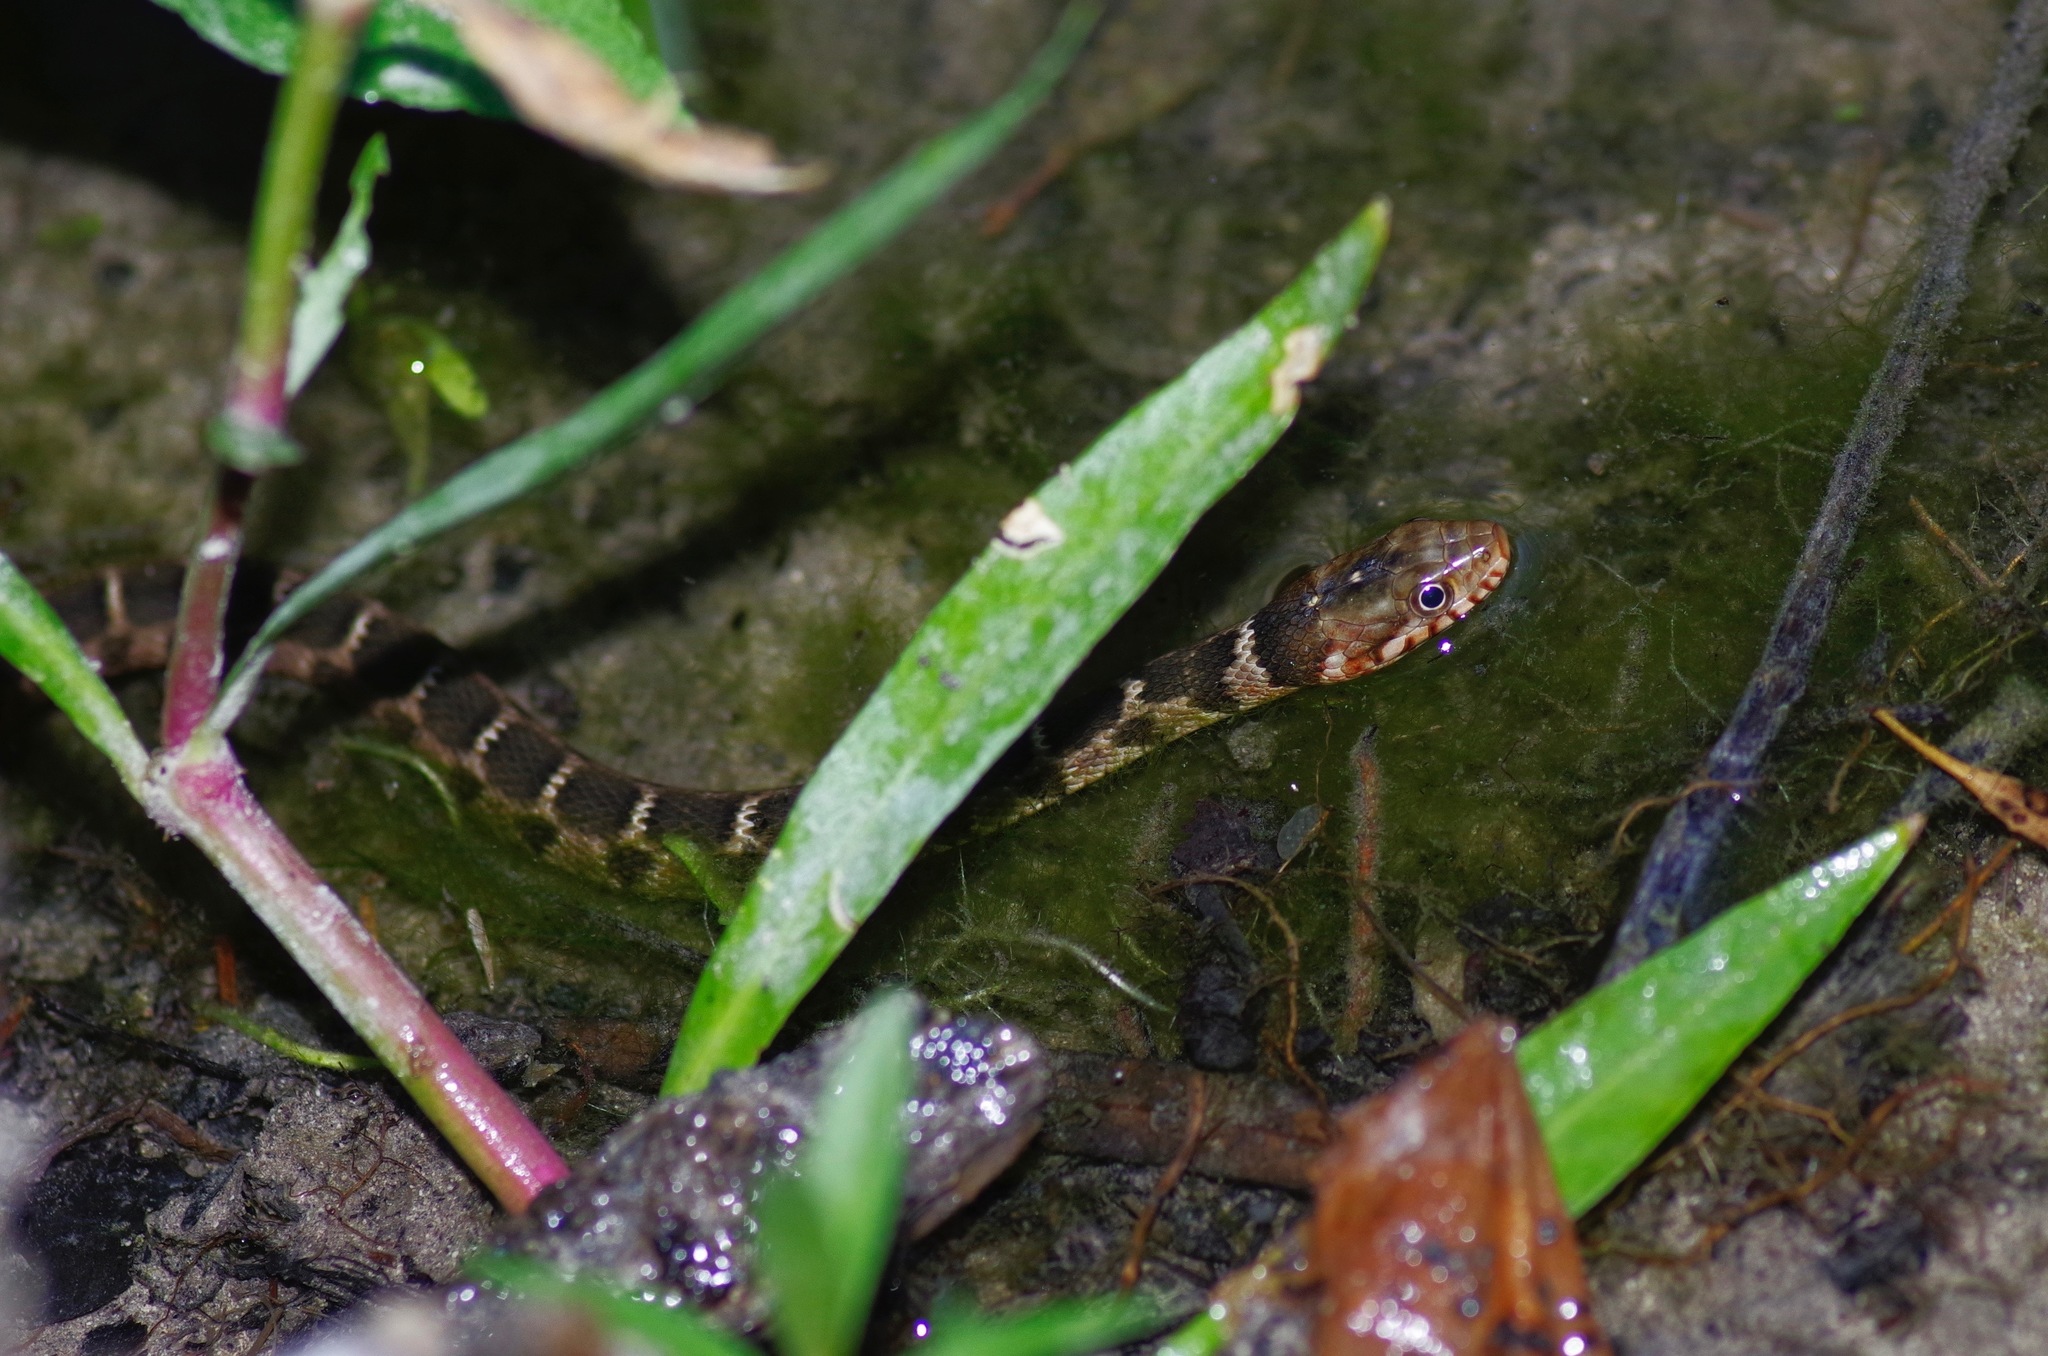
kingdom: Animalia
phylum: Chordata
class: Squamata
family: Colubridae
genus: Nerodia
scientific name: Nerodia erythrogaster
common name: Plainbelly water snake
